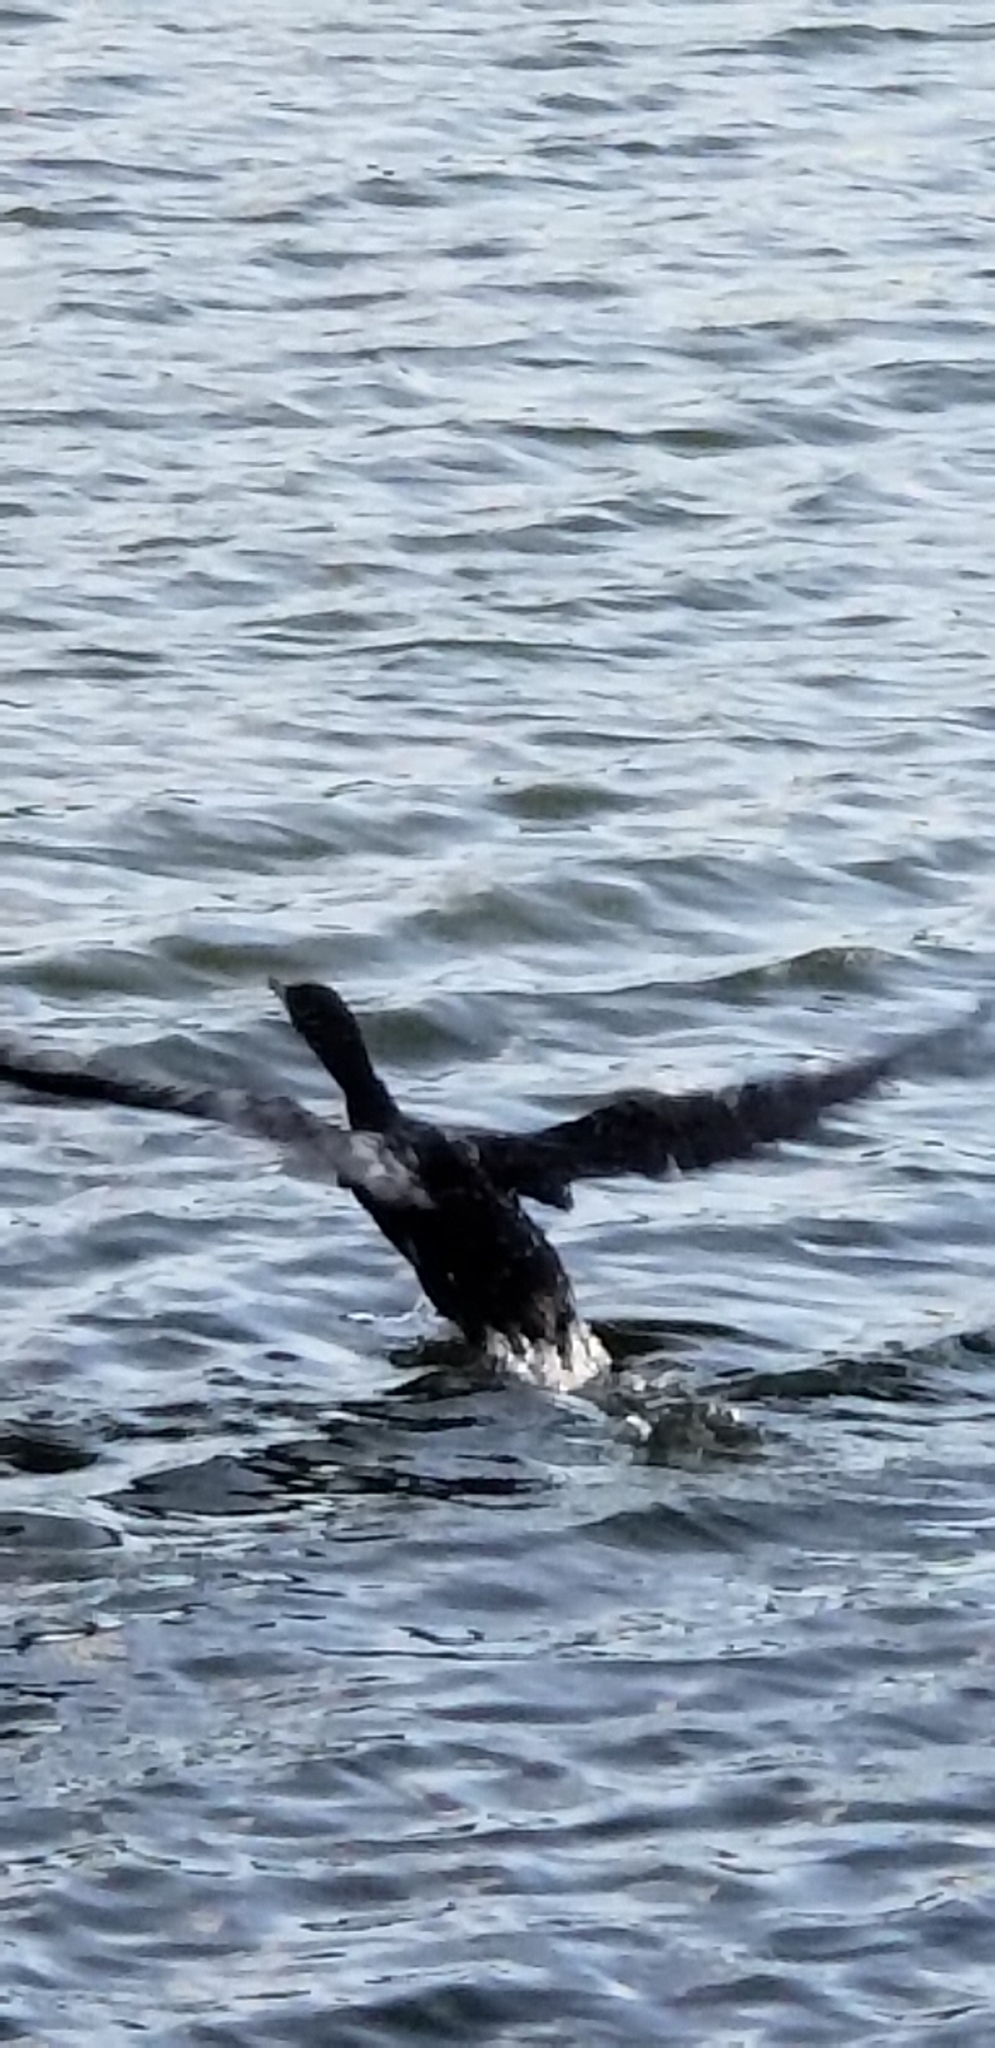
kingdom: Animalia
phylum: Chordata
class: Aves
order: Suliformes
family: Phalacrocoracidae
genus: Phalacrocorax
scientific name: Phalacrocorax auritus
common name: Double-crested cormorant
